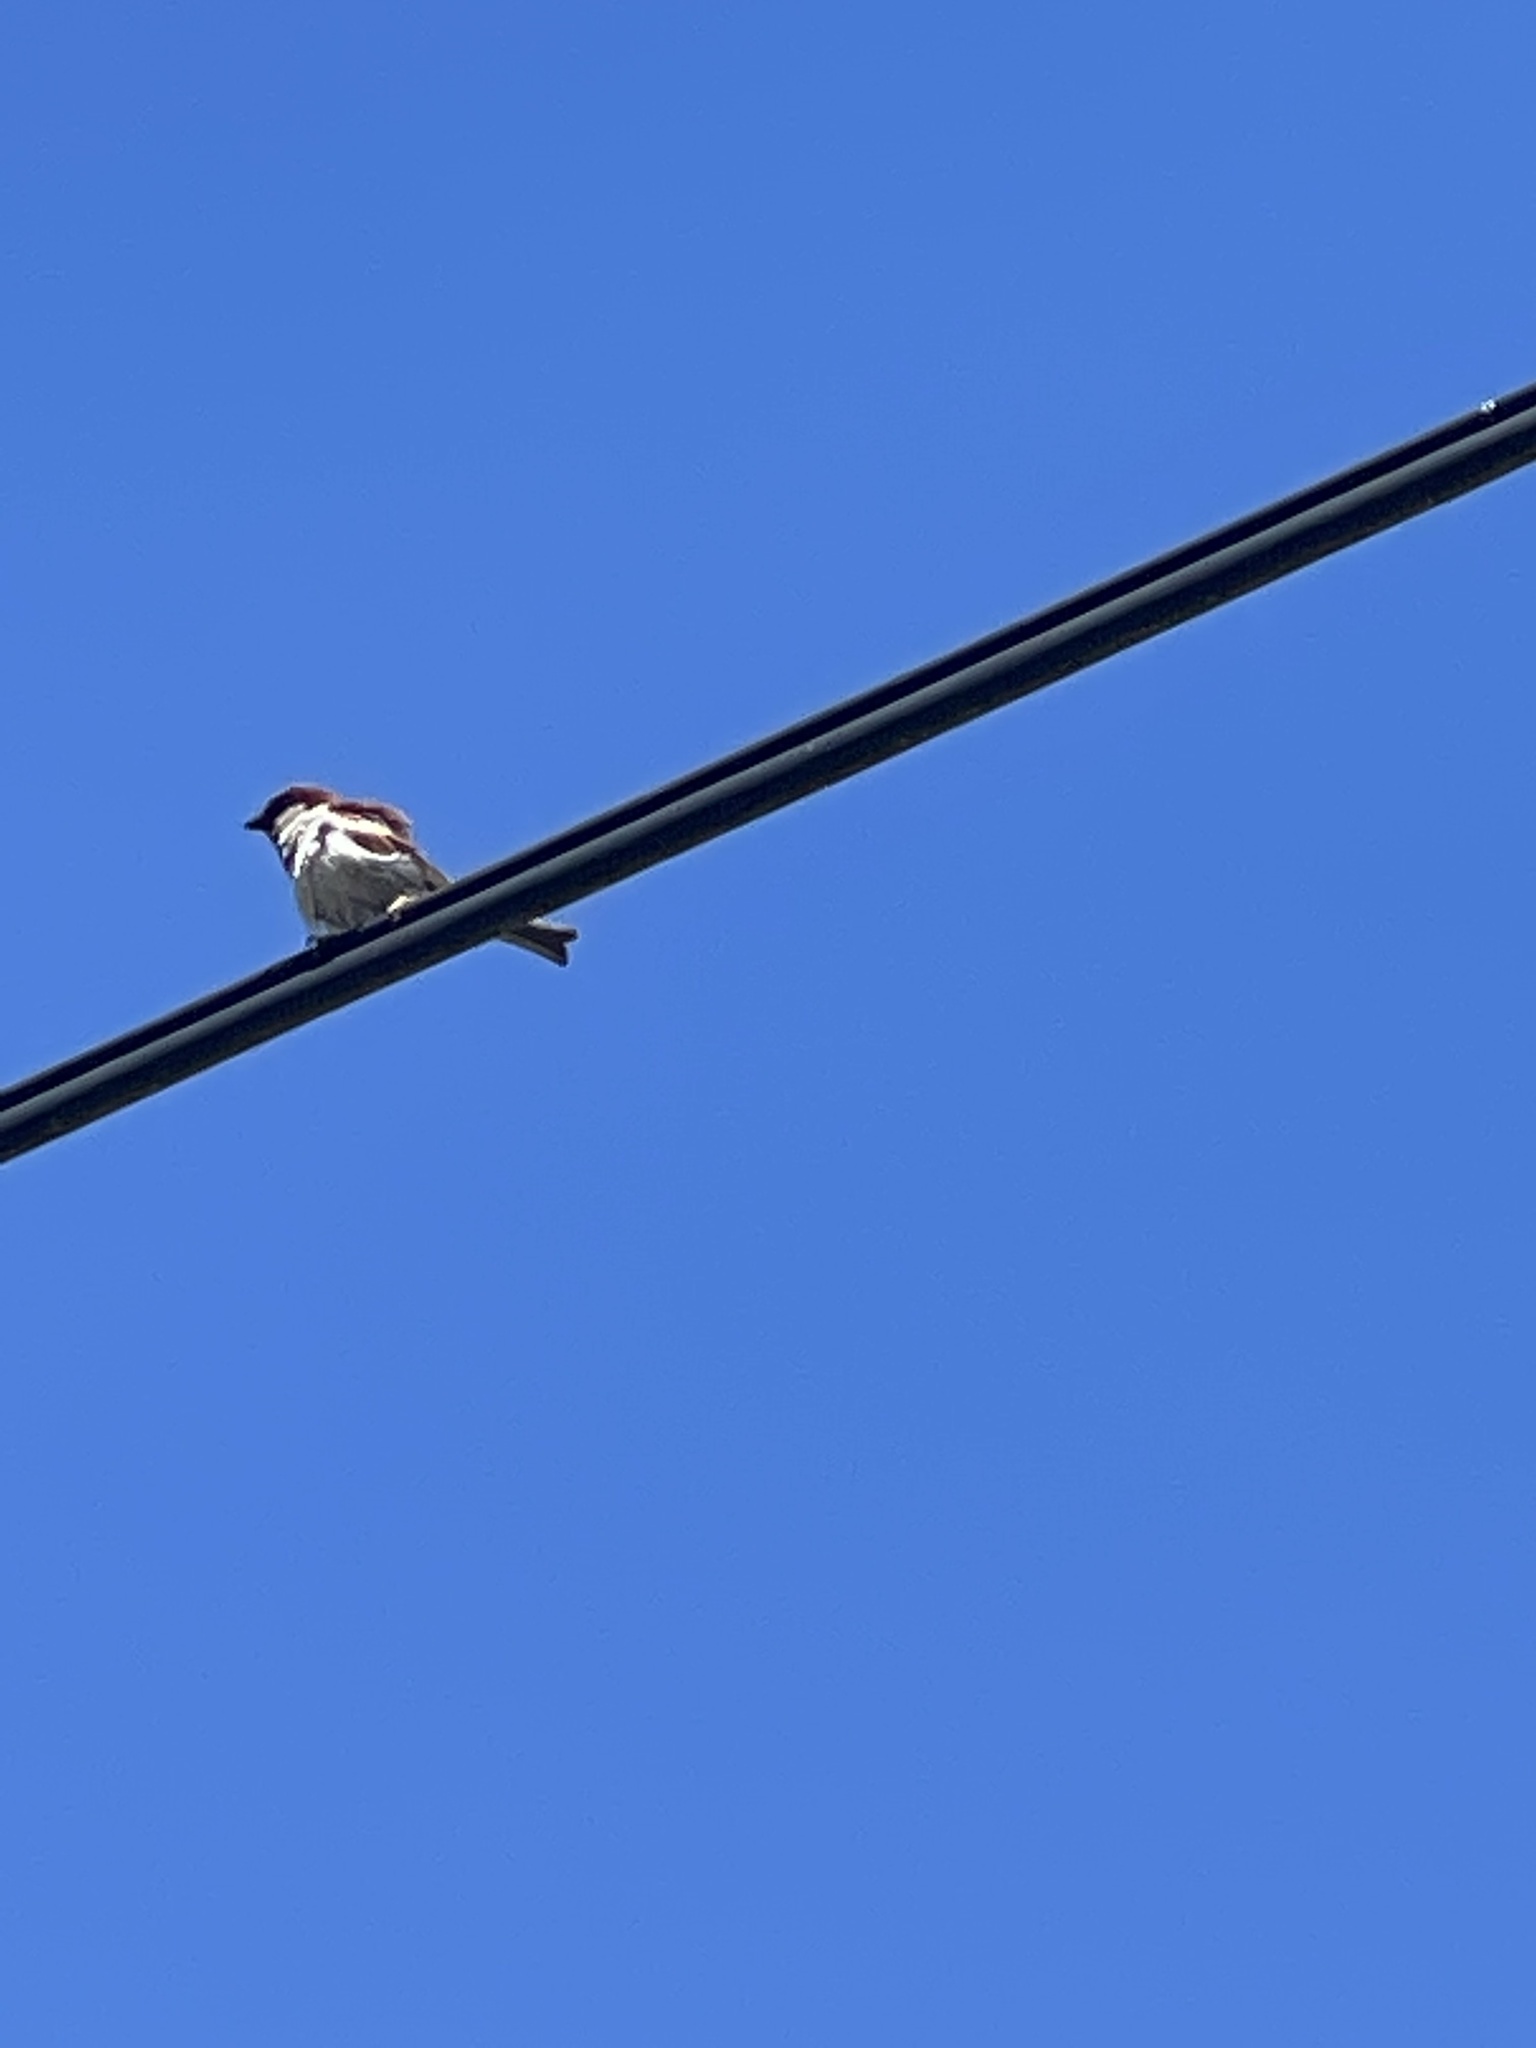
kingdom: Animalia
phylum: Chordata
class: Aves
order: Passeriformes
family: Passeridae
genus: Passer
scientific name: Passer domesticus
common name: House sparrow
